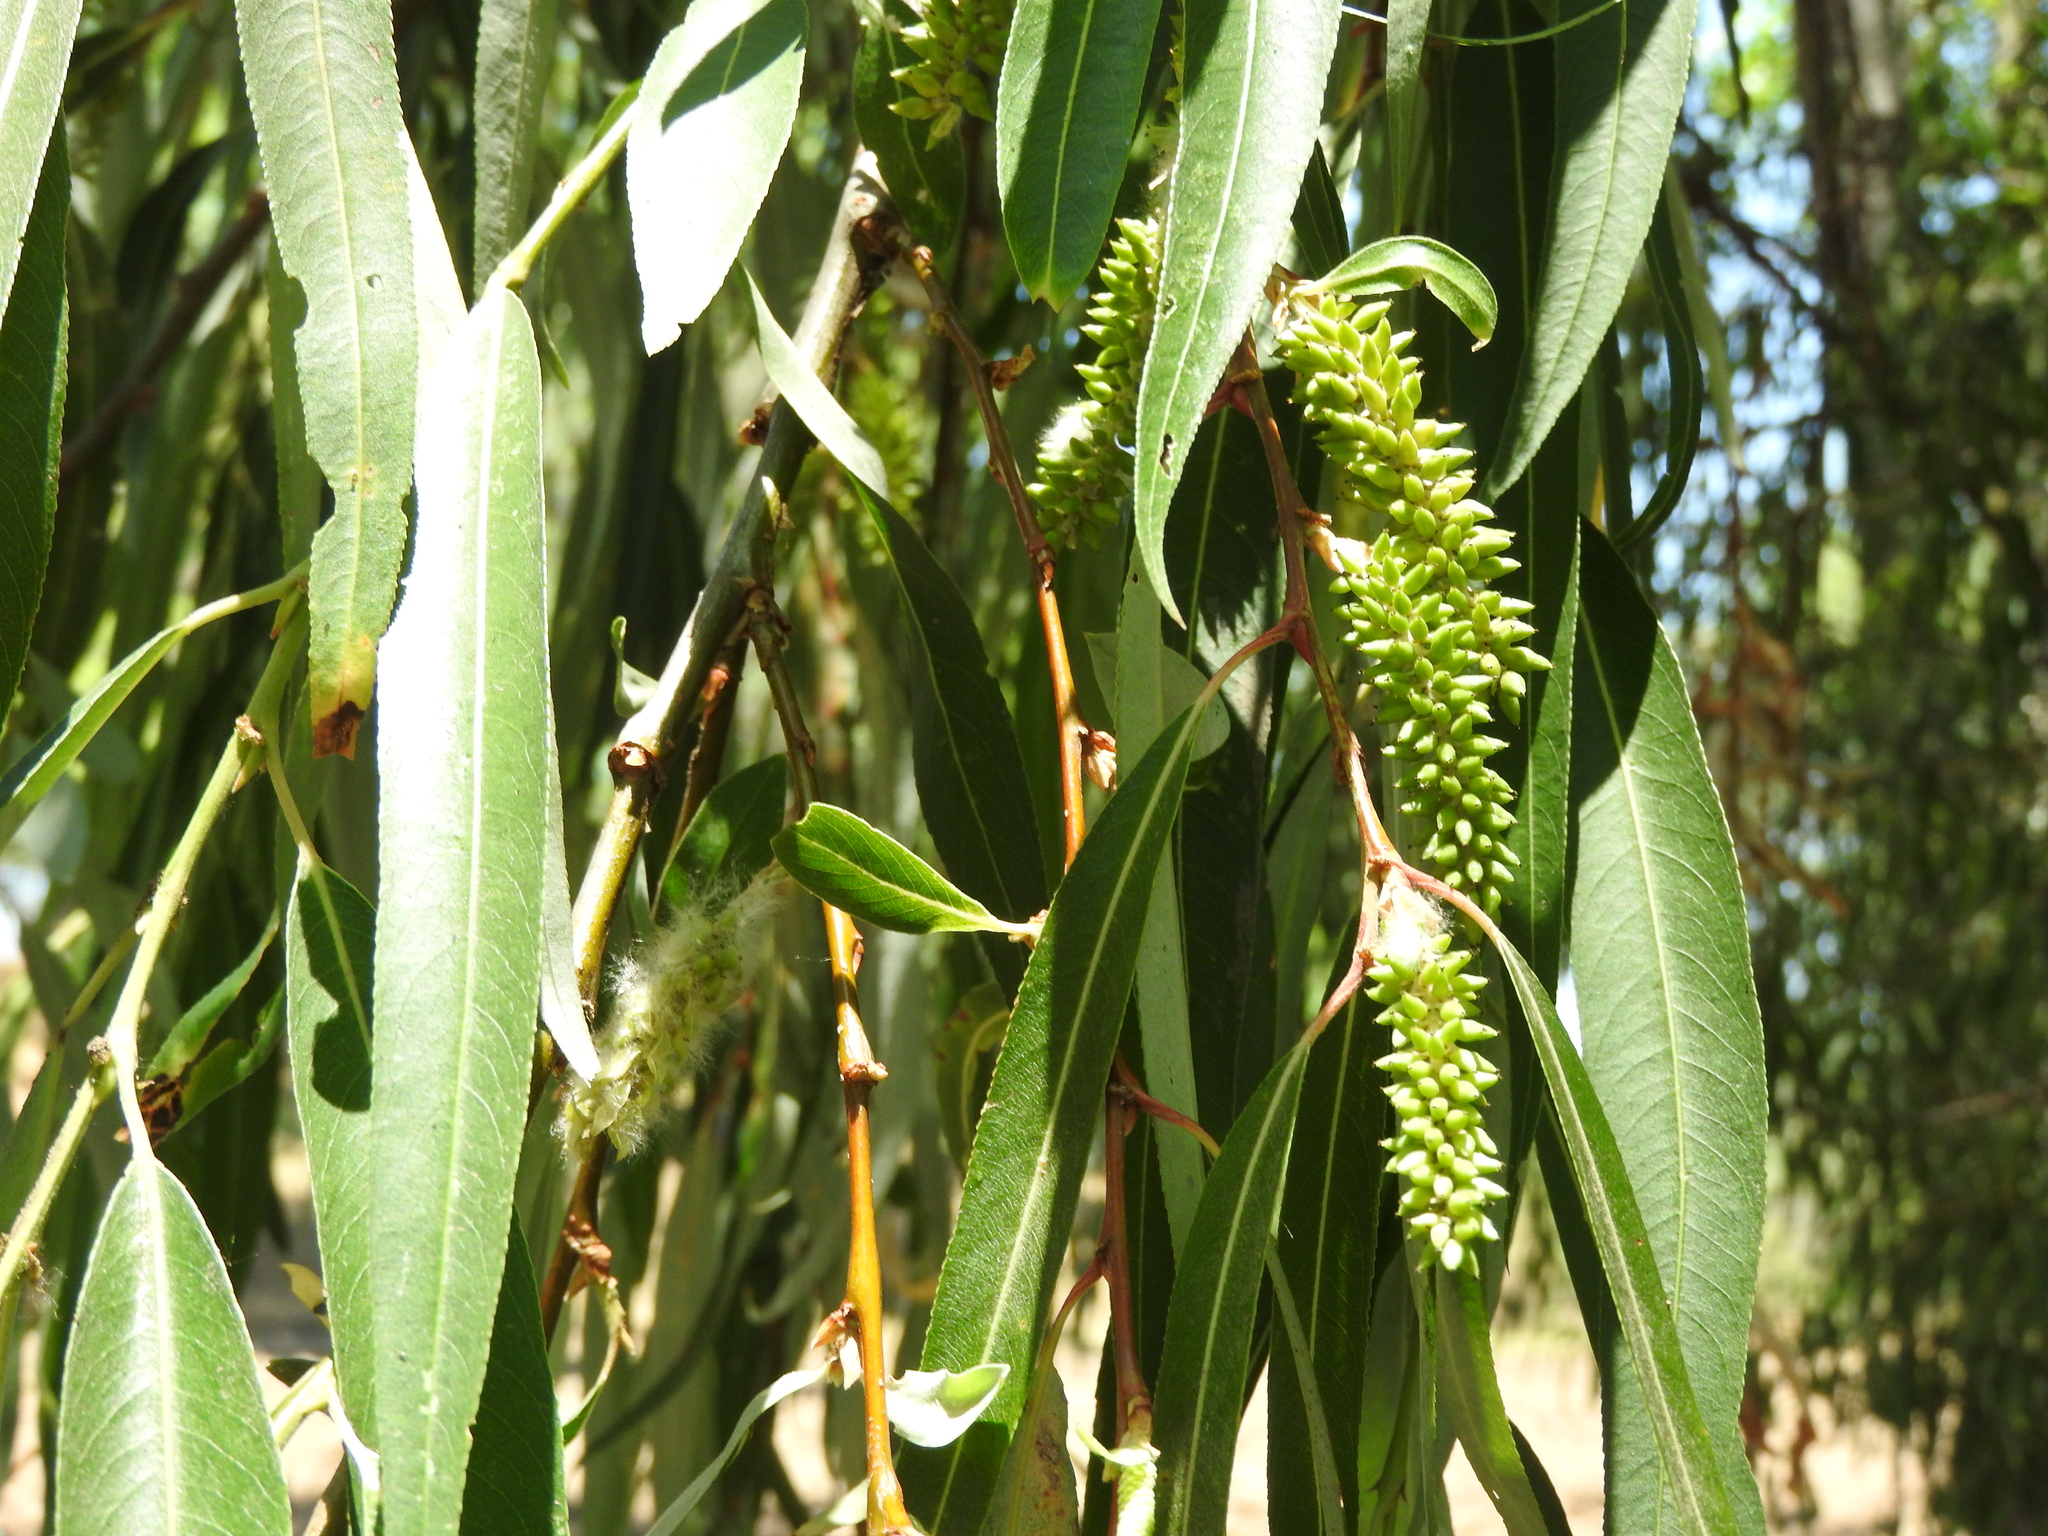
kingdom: Plantae
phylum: Tracheophyta
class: Magnoliopsida
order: Malpighiales
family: Salicaceae
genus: Salix
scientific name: Salix humboldtiana
